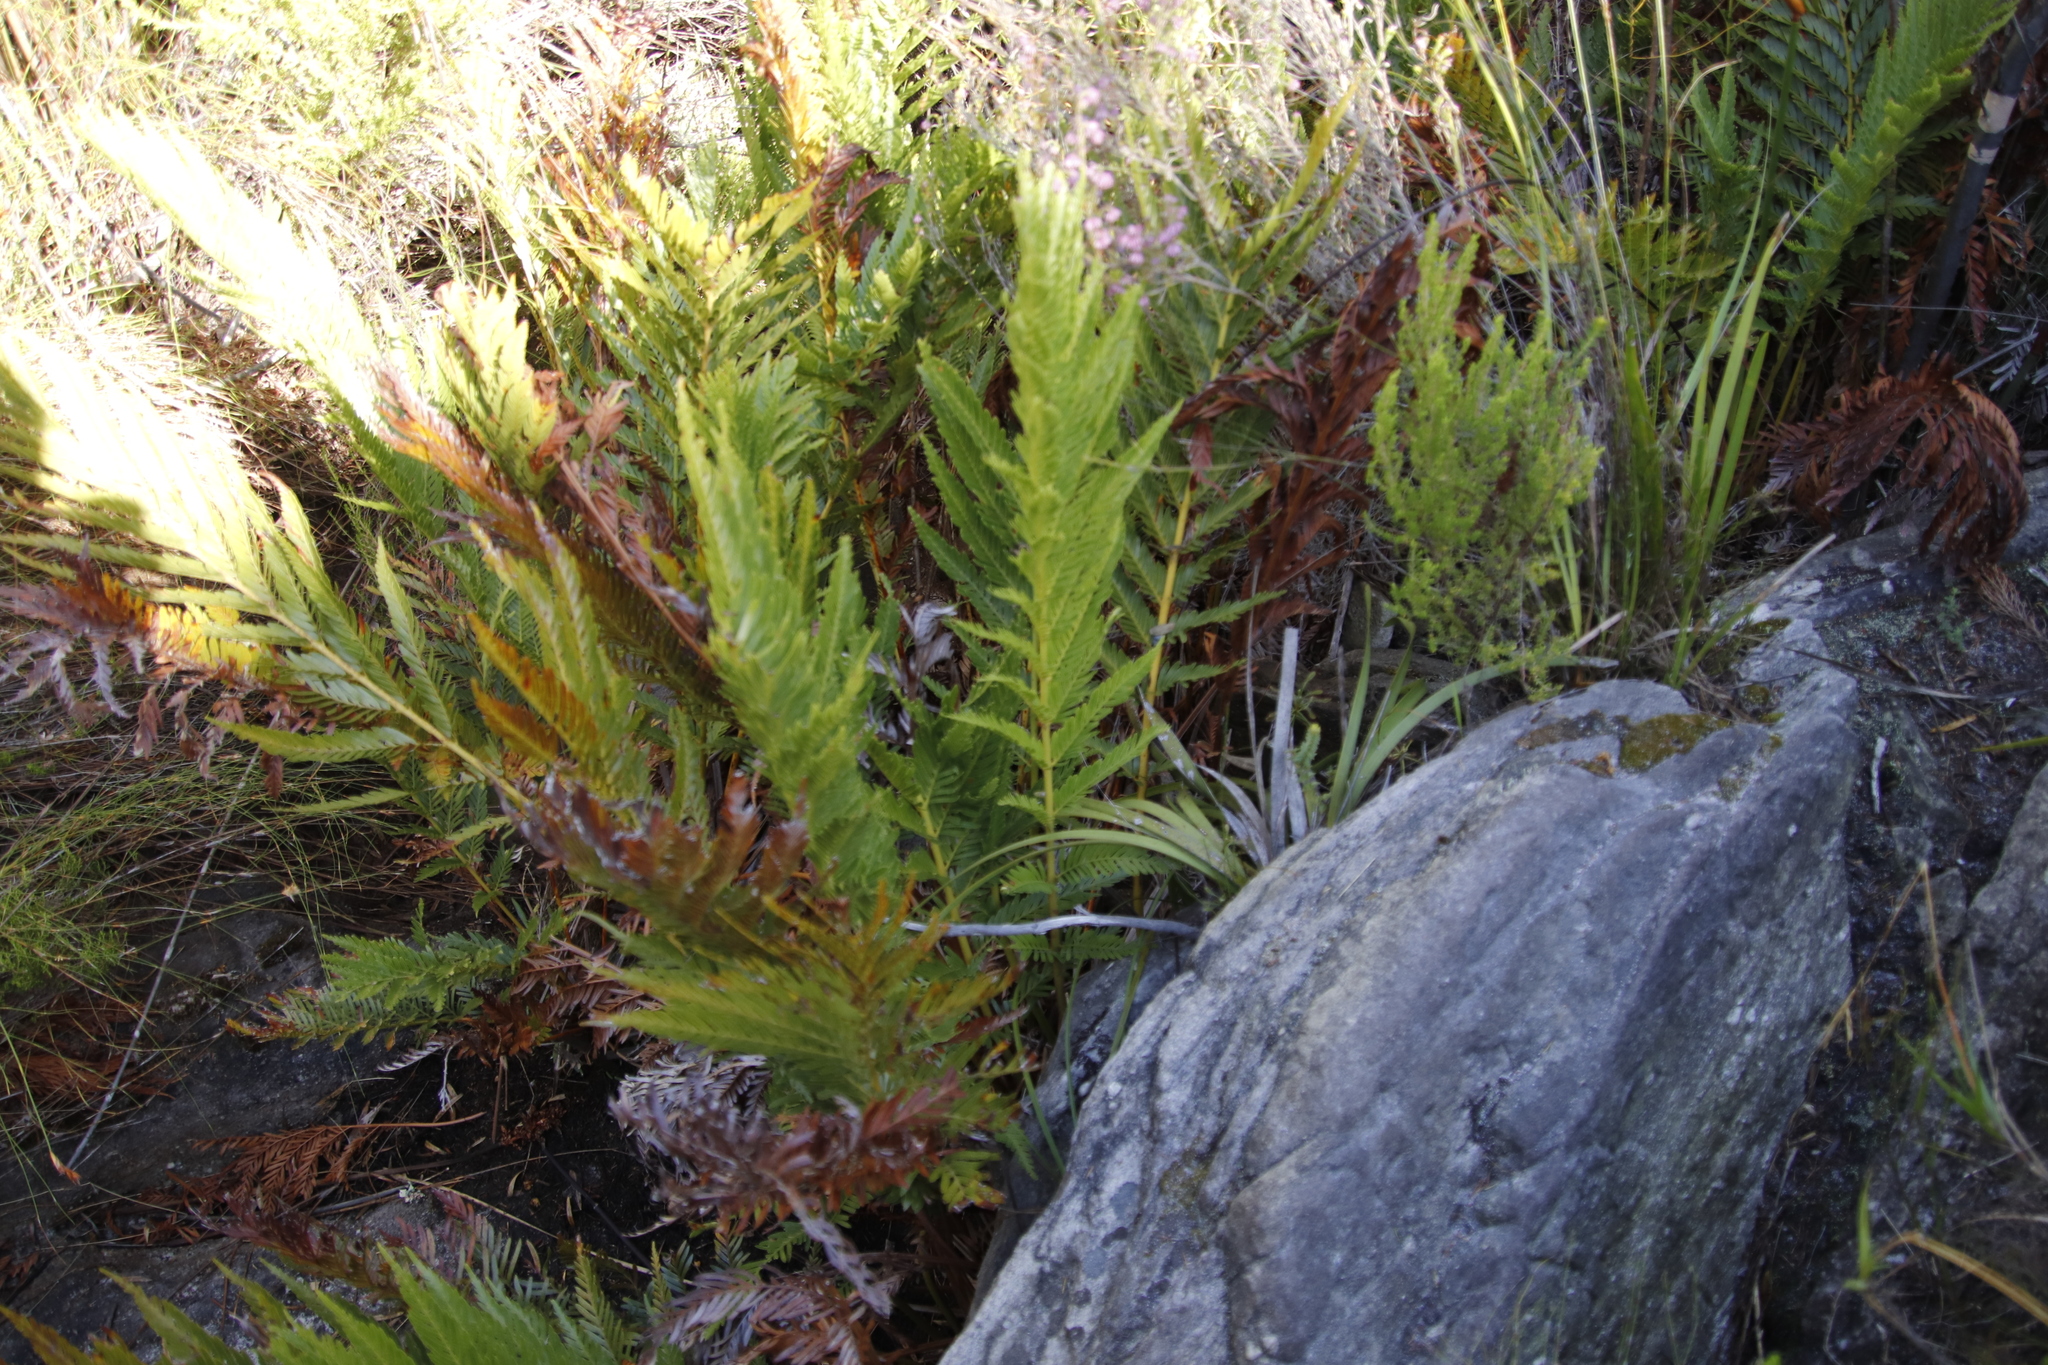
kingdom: Plantae
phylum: Tracheophyta
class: Polypodiopsida
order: Osmundales
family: Osmundaceae
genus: Todea
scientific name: Todea barbara
